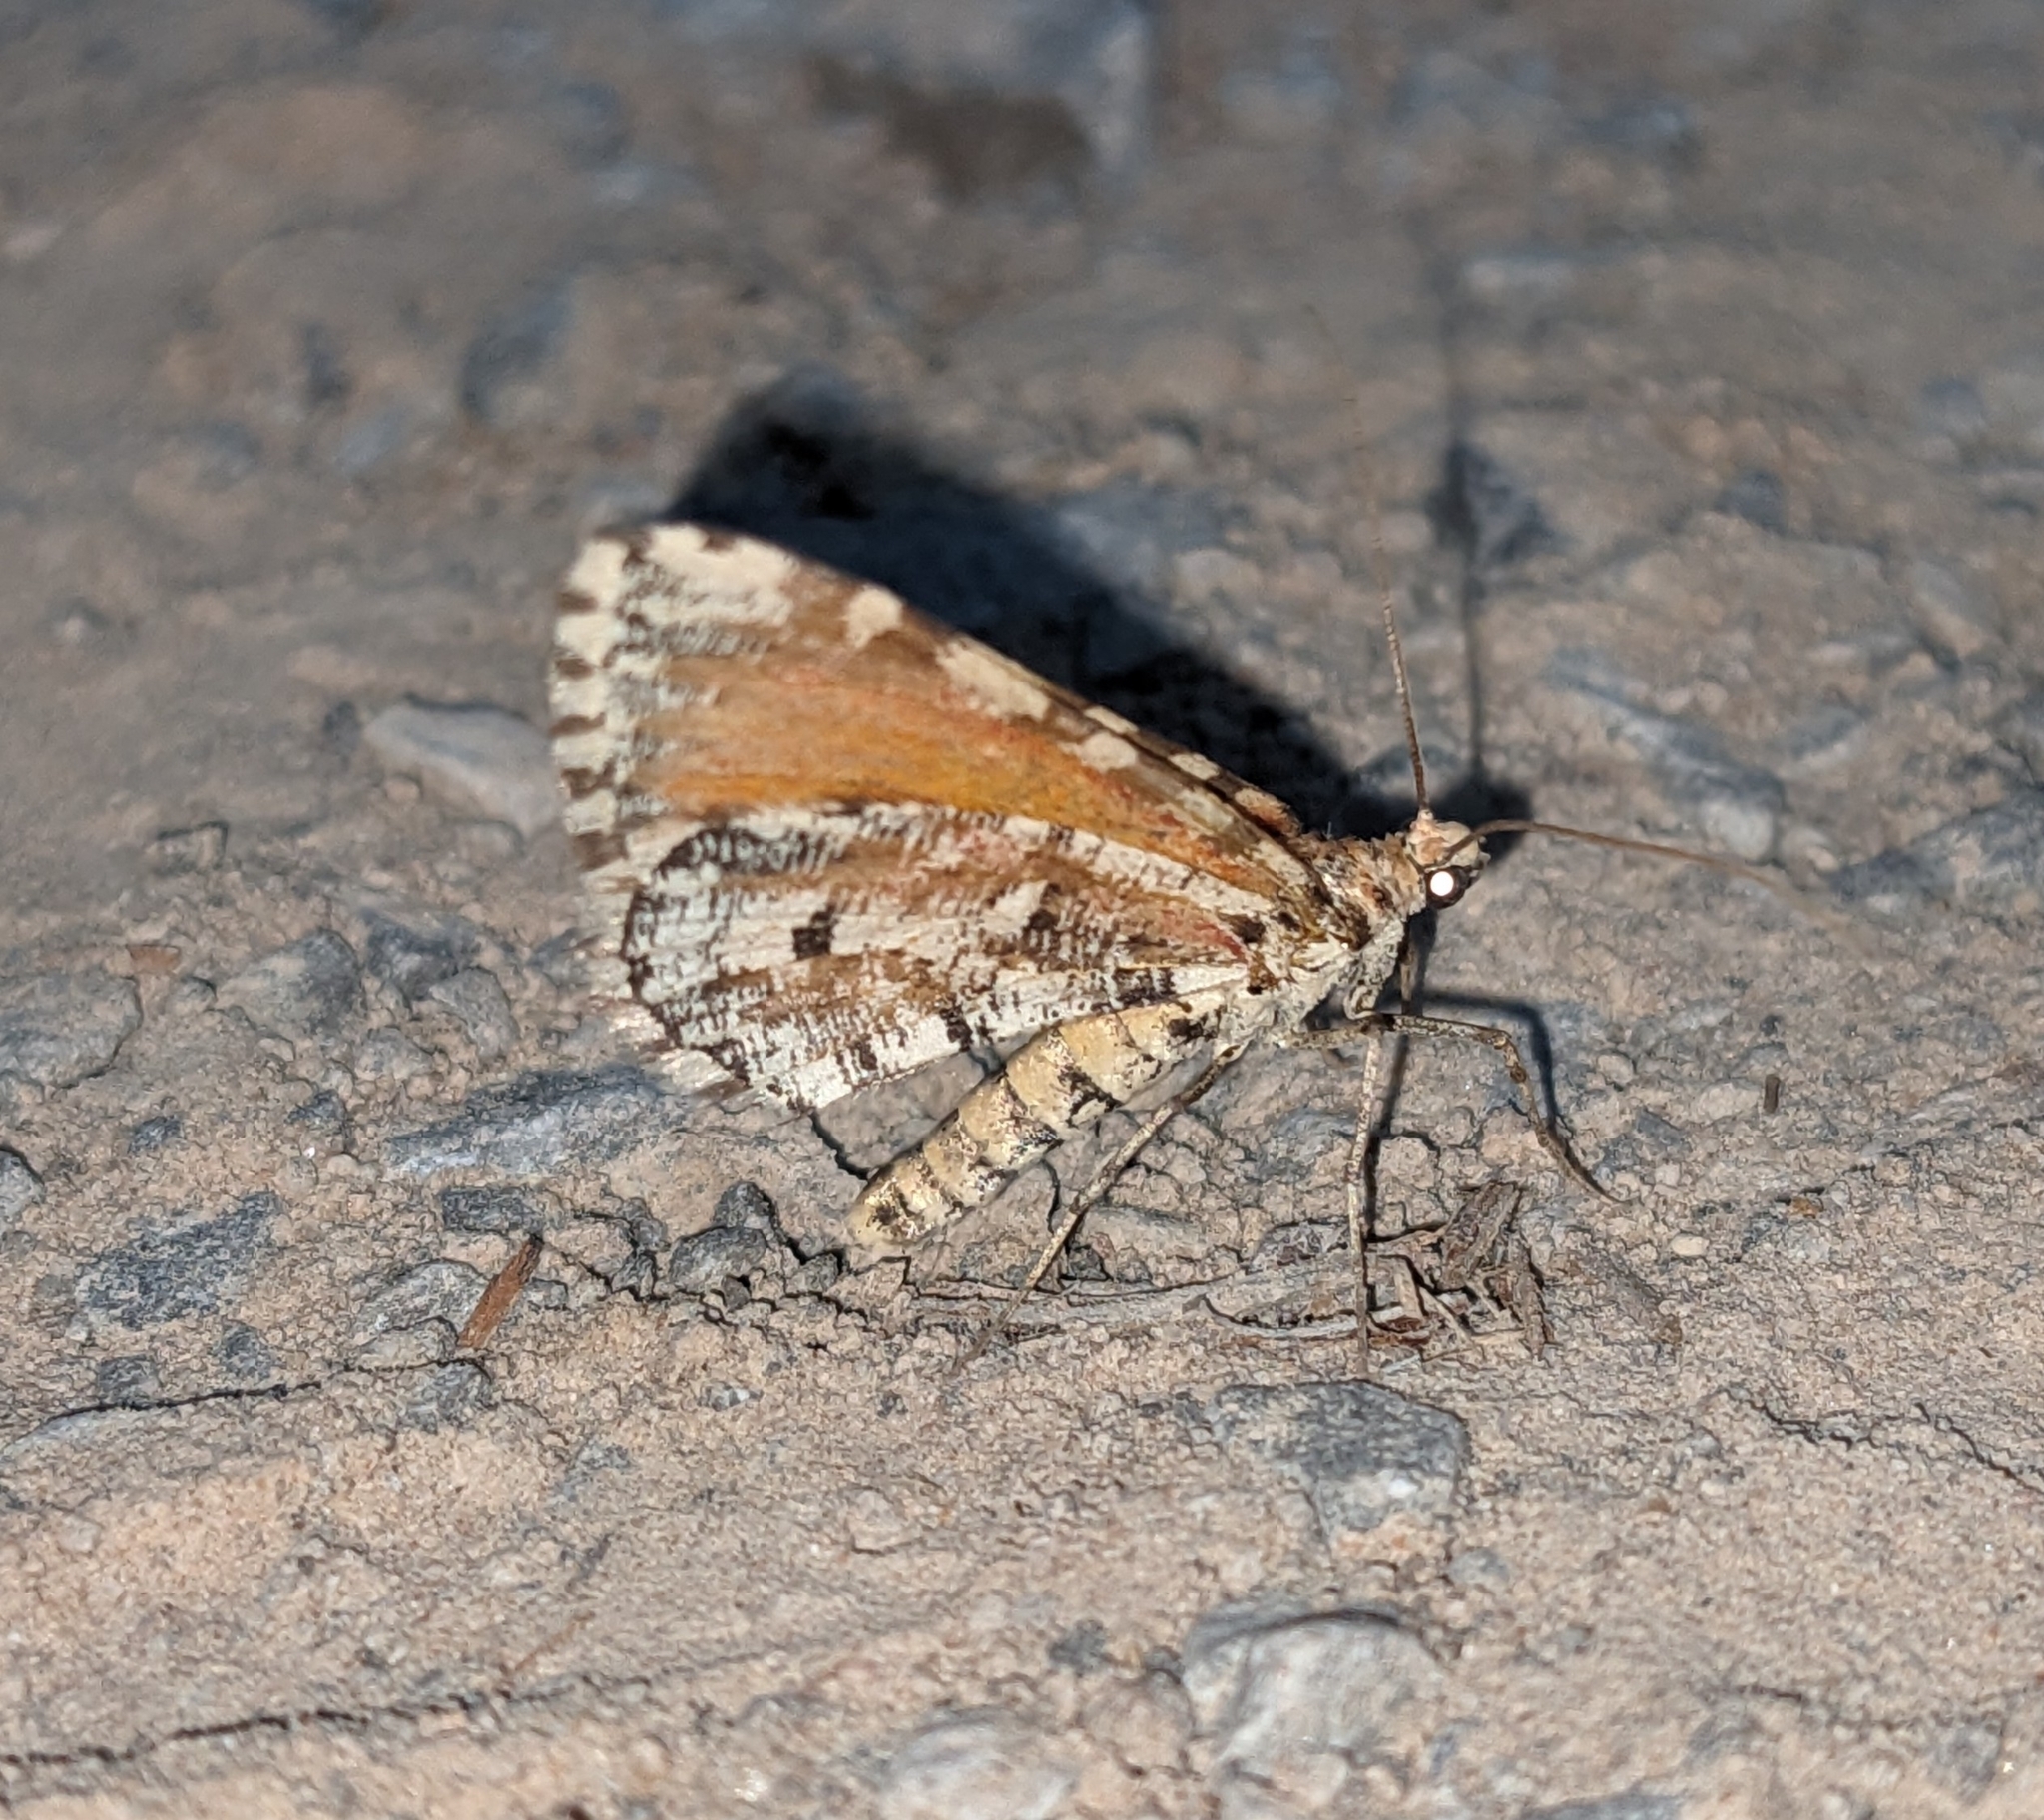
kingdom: Animalia
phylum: Arthropoda
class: Insecta
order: Lepidoptera
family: Geometridae
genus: Stamnodes
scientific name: Stamnodes tessellata
